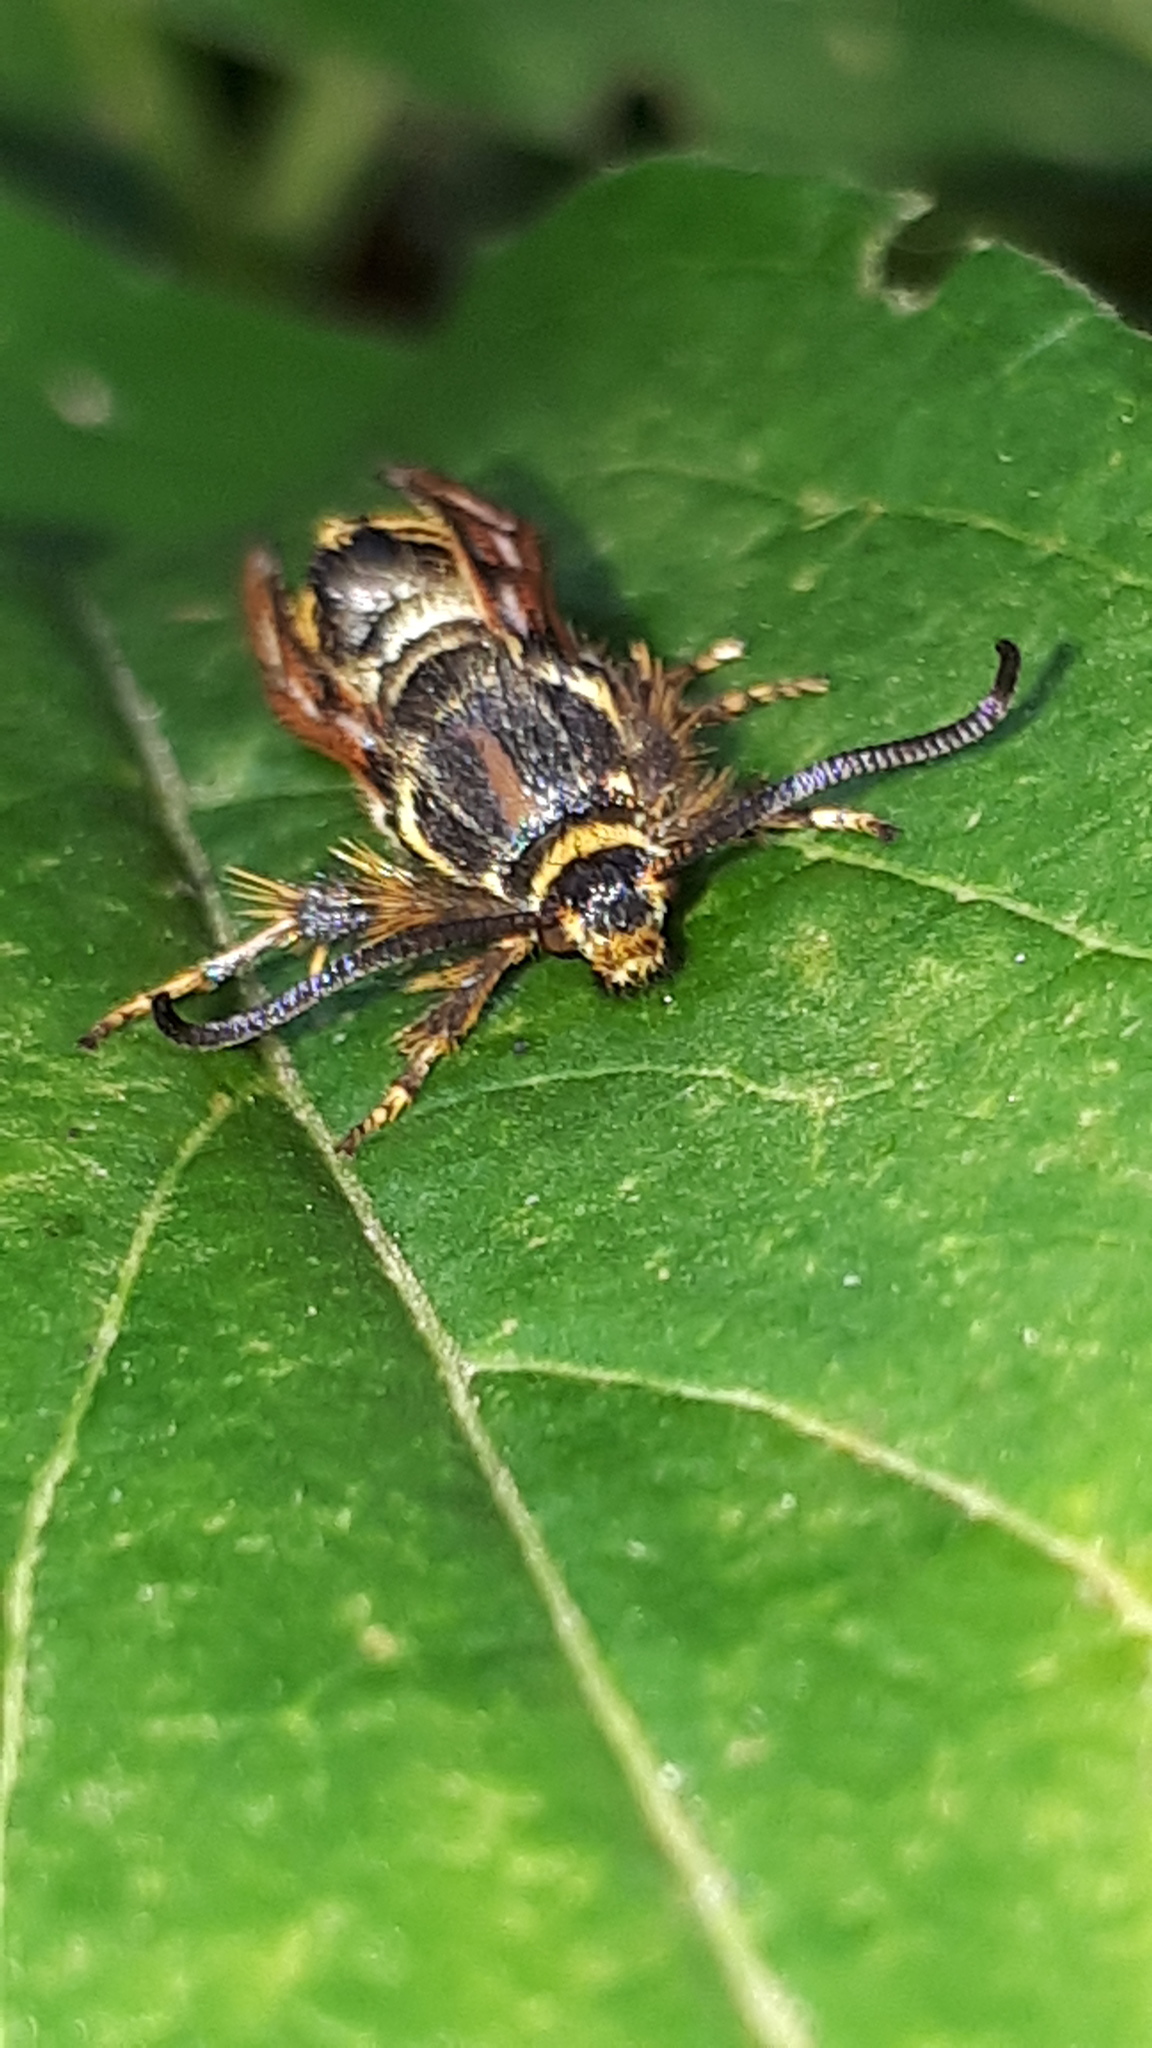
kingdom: Animalia
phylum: Arthropoda
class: Insecta
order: Lepidoptera
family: Sesiidae
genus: Pennisetia
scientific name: Pennisetia hylaeiformis
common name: Raspberry clearwing
